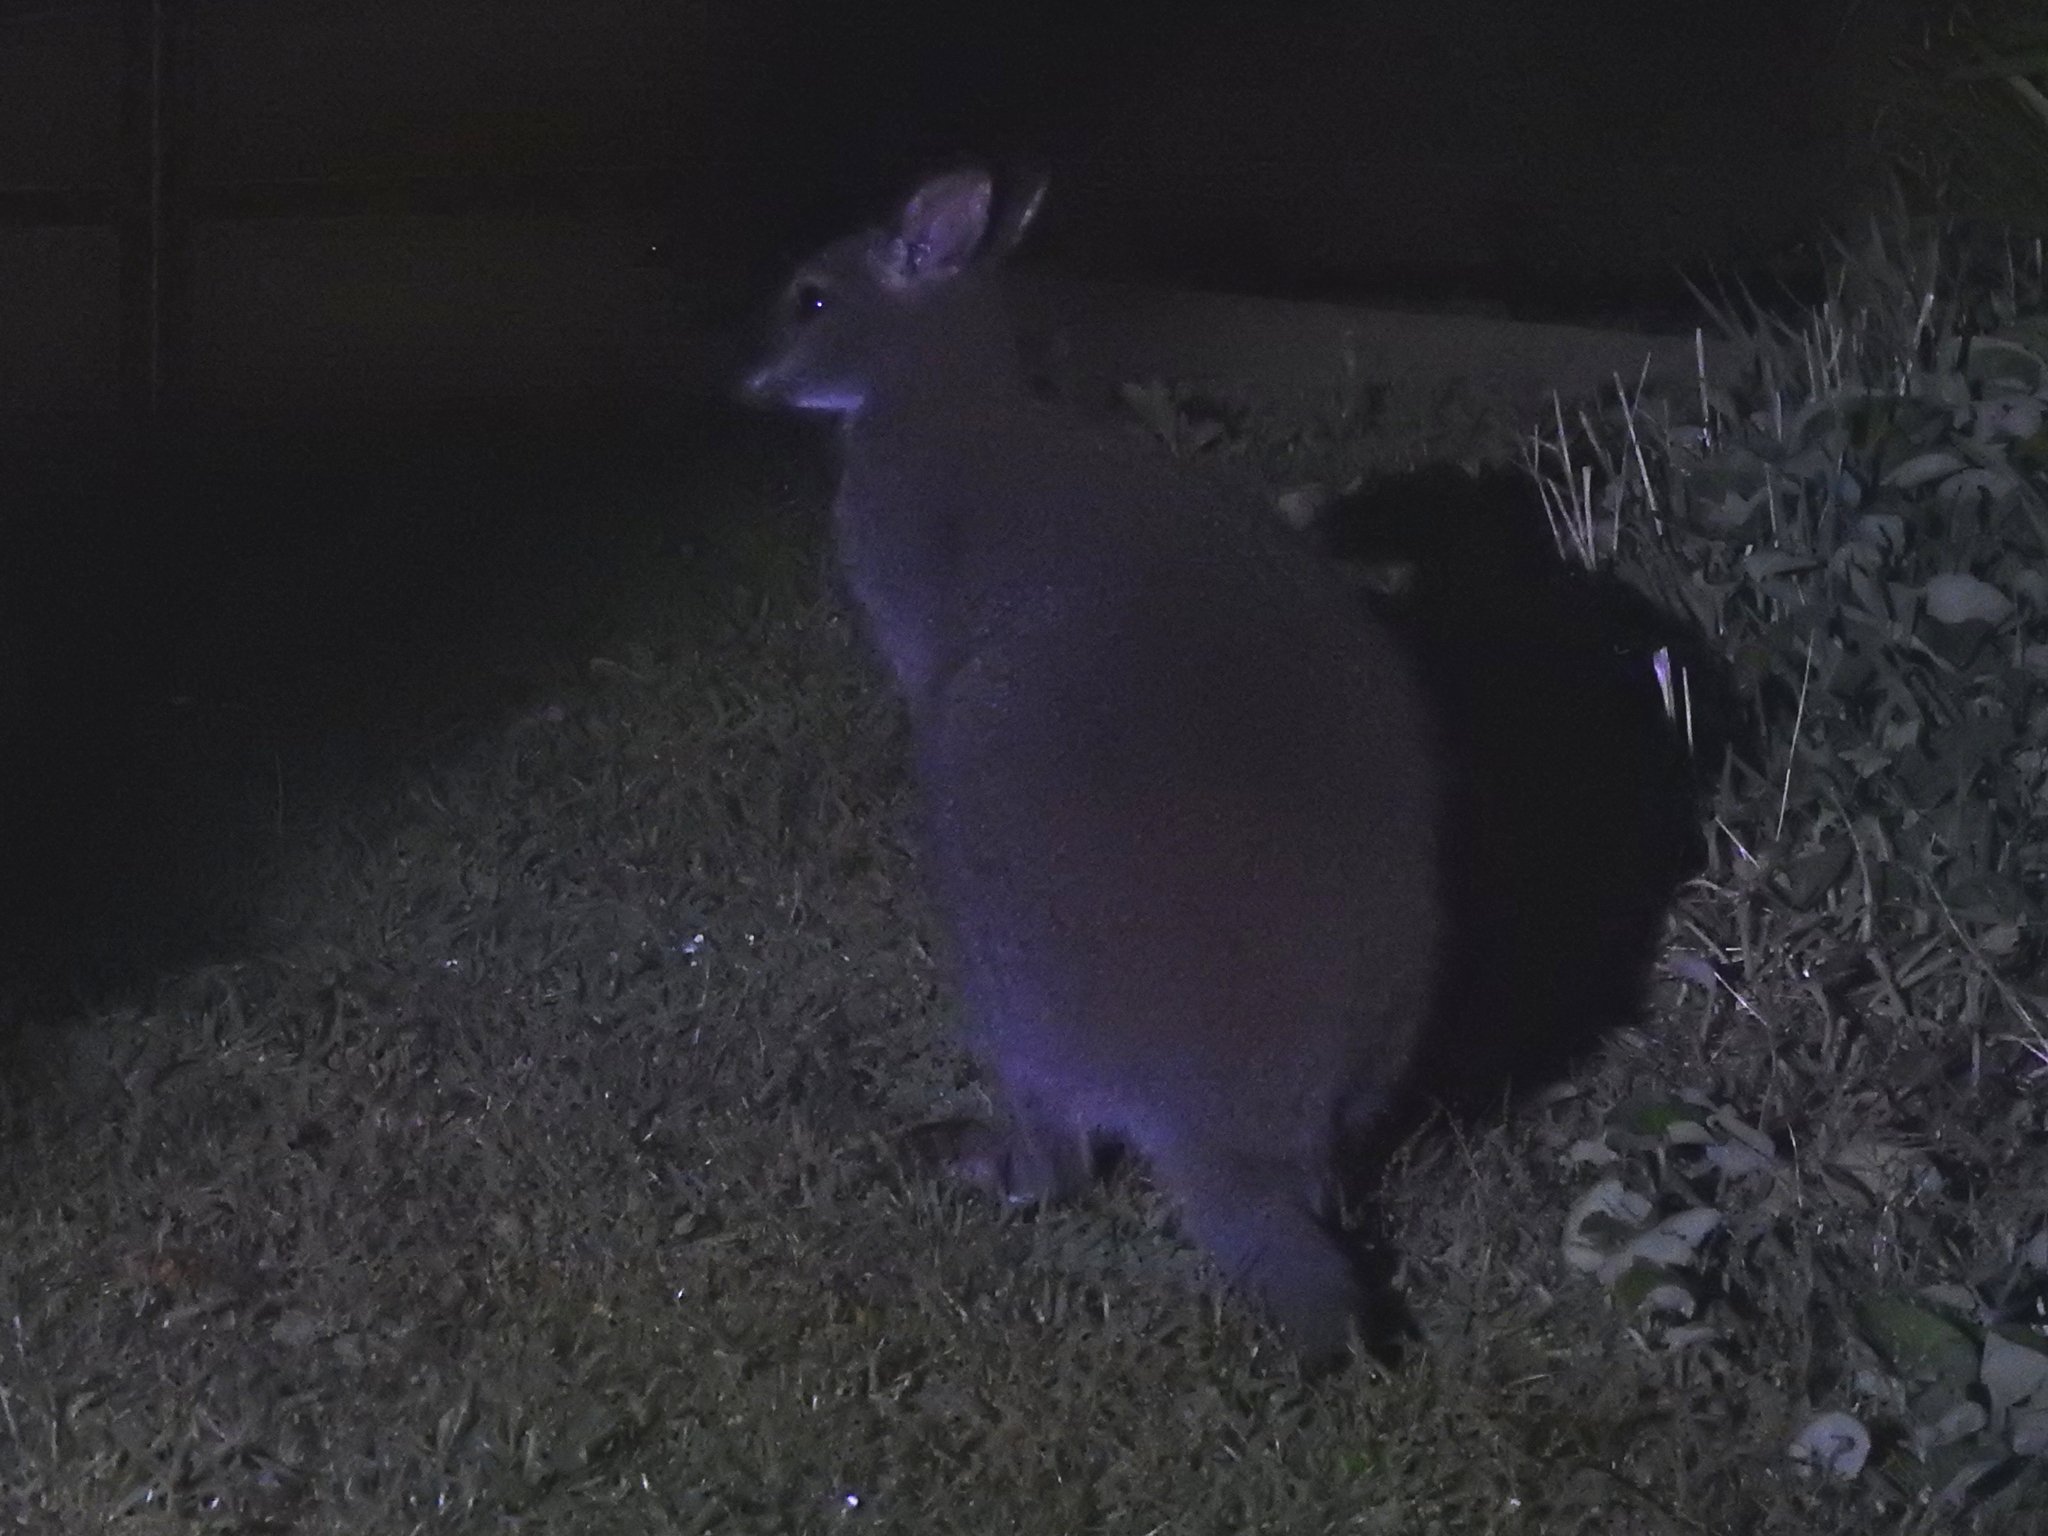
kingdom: Animalia
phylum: Chordata
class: Mammalia
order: Diprotodontia
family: Macropodidae
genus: Notamacropus
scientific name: Notamacropus rufogriseus
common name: Red-necked wallaby
